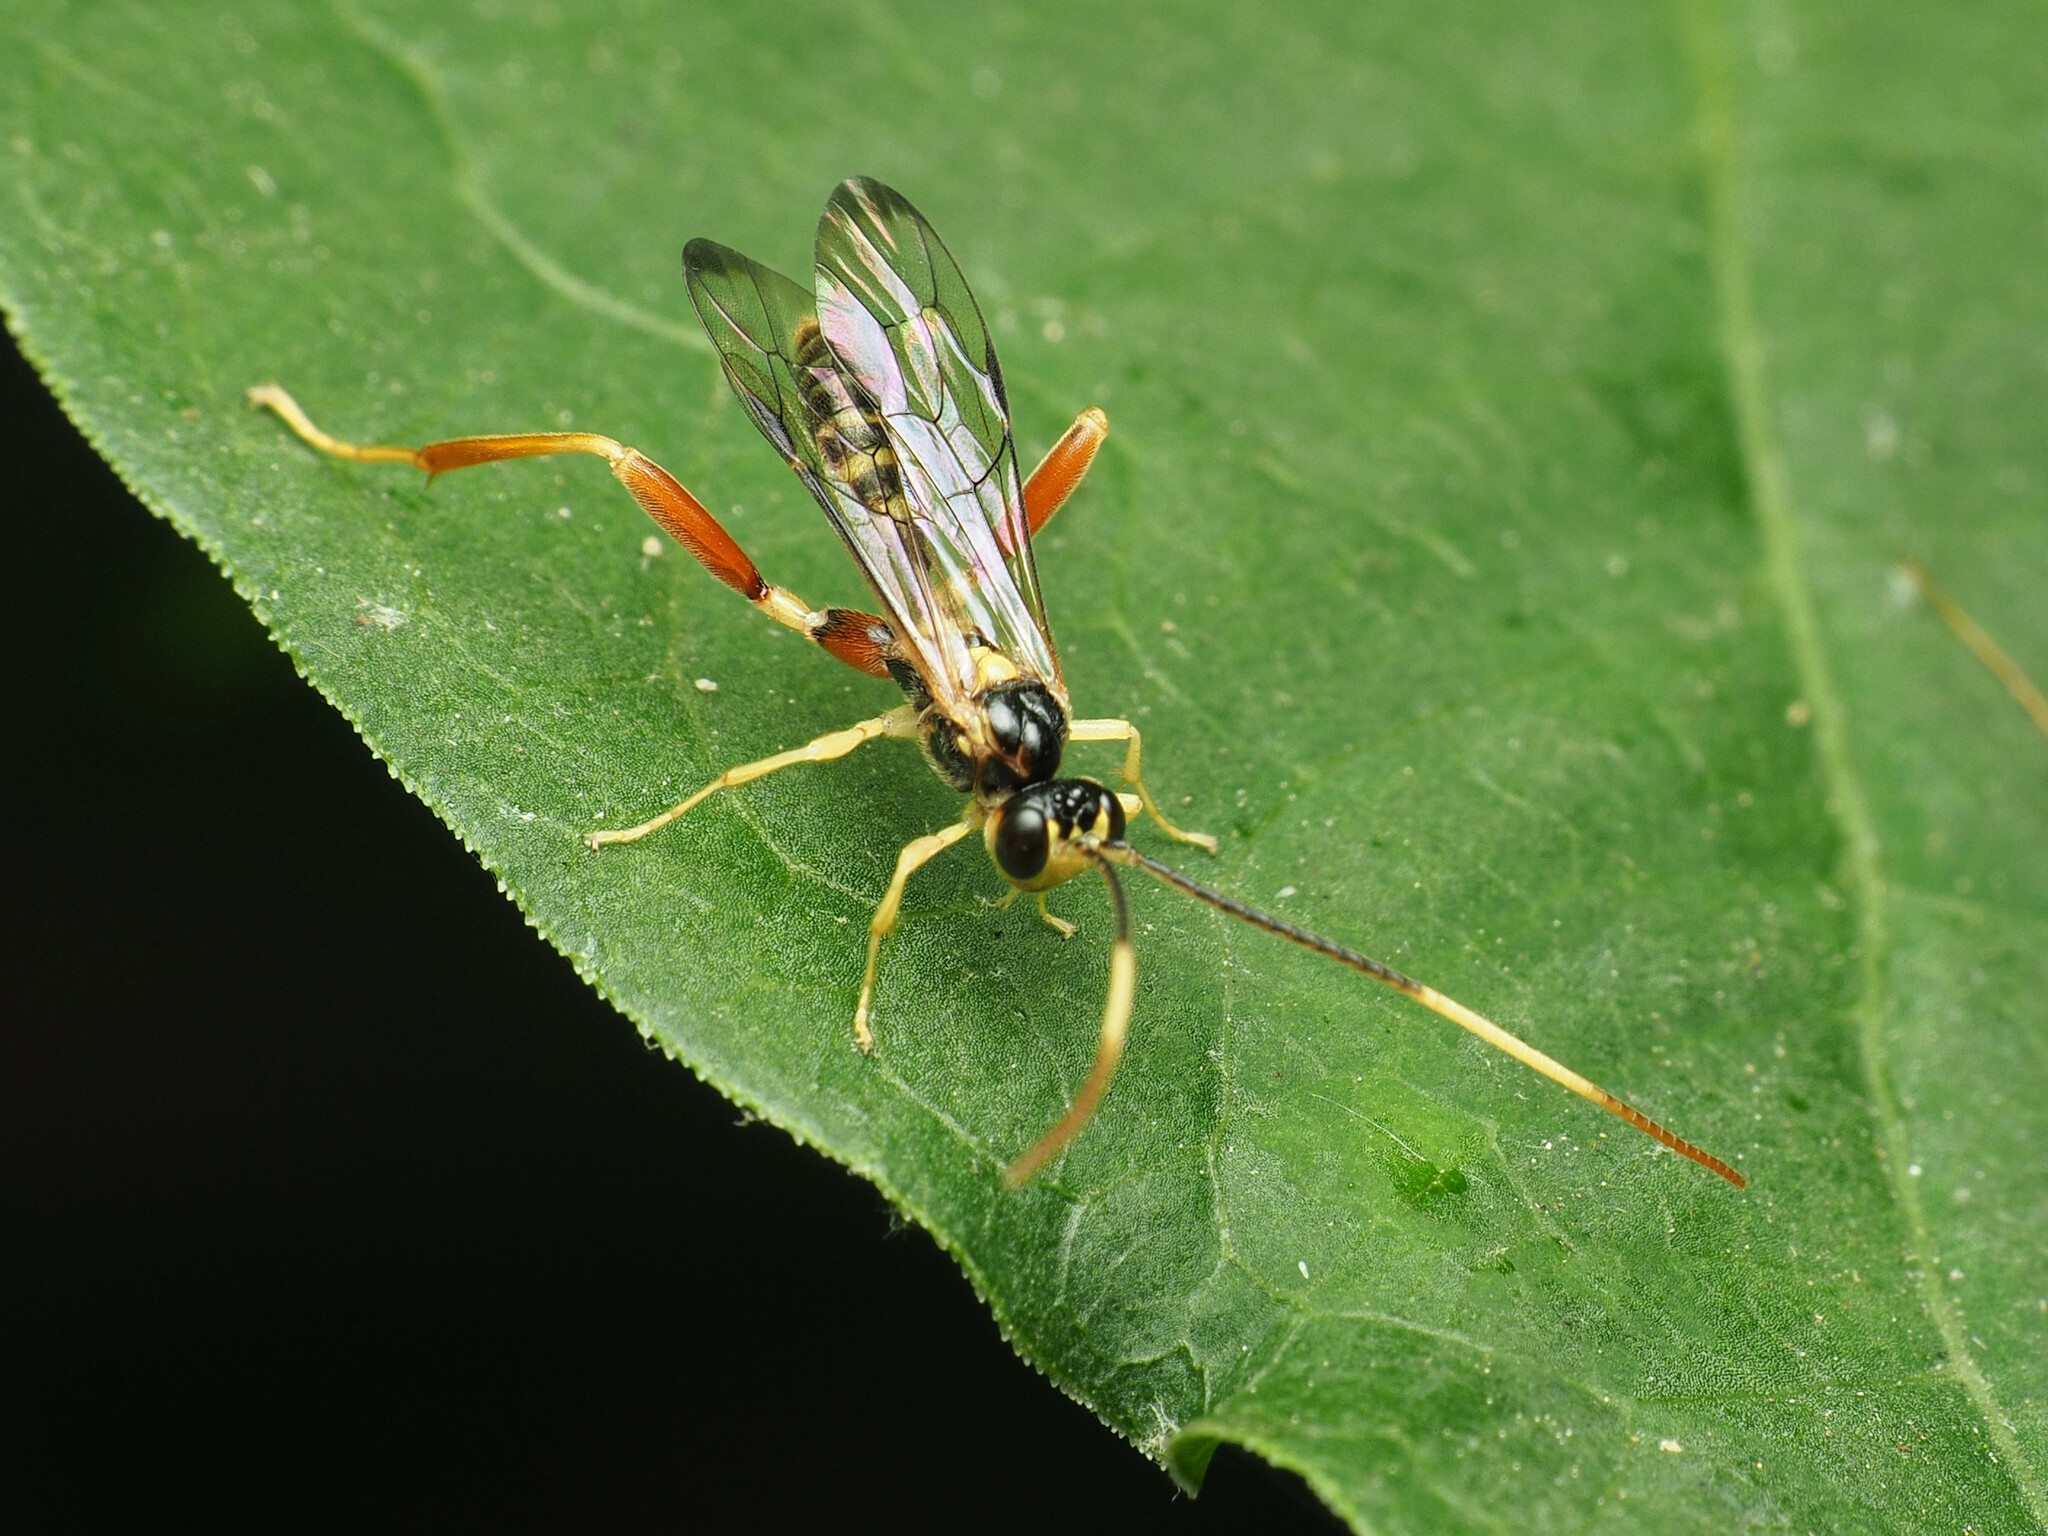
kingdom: Animalia
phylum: Arthropoda
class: Insecta
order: Hymenoptera
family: Ichneumonidae
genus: Spilopteron
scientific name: Spilopteron vicinum
